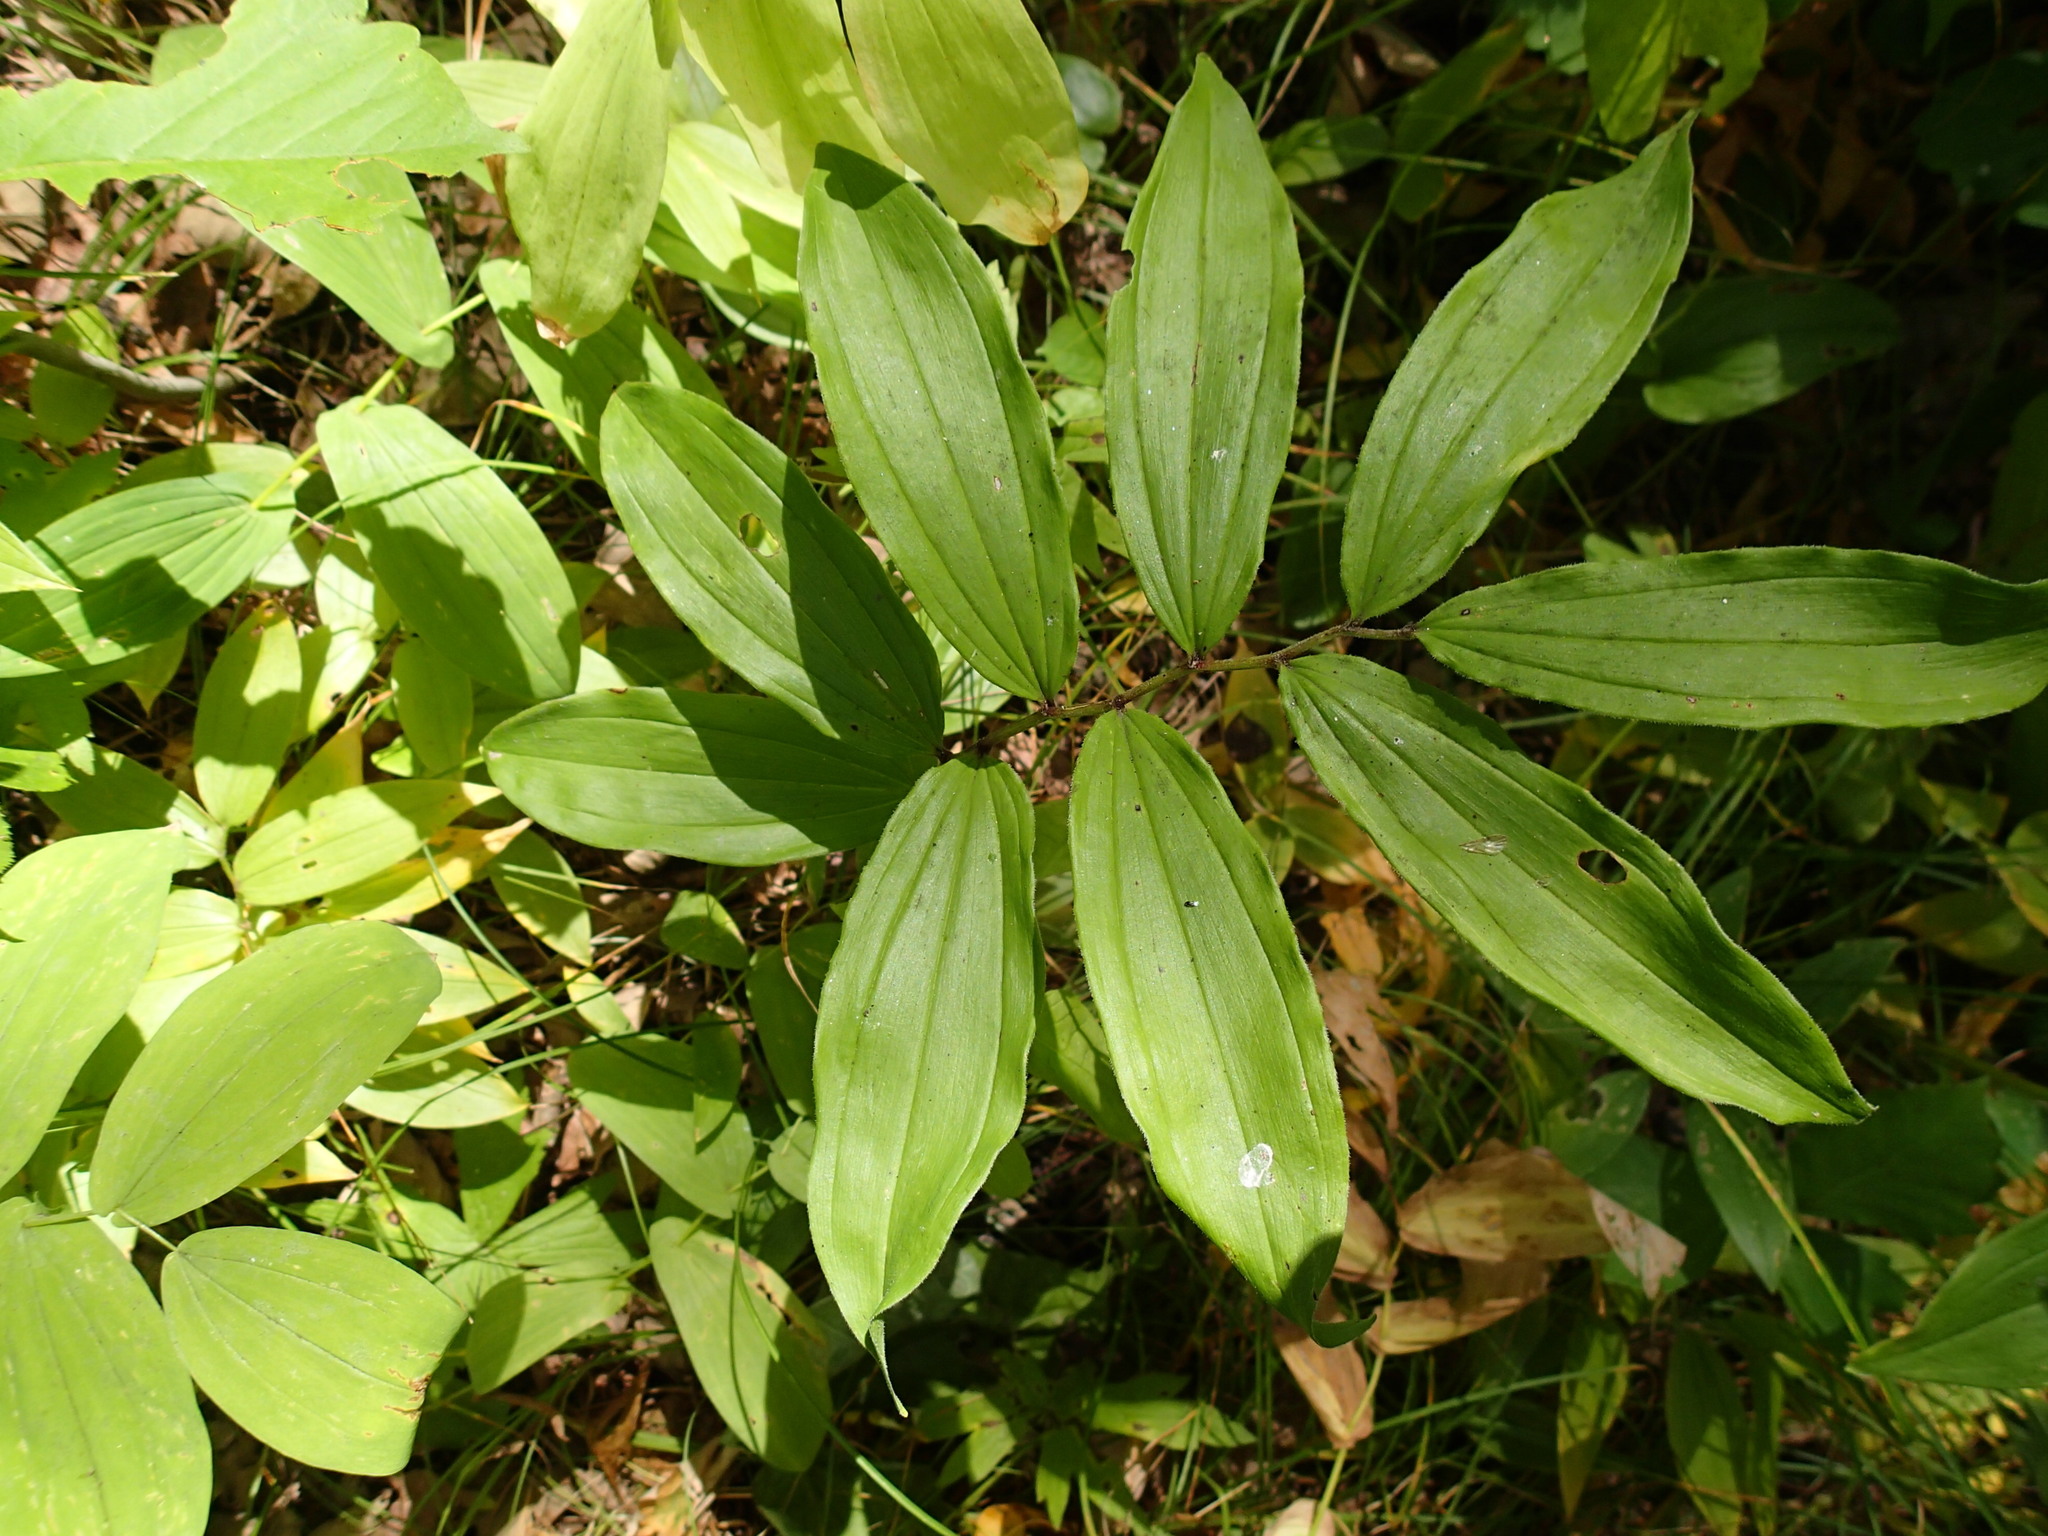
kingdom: Plantae
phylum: Tracheophyta
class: Liliopsida
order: Asparagales
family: Asparagaceae
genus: Maianthemum
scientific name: Maianthemum racemosum
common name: False spikenard
